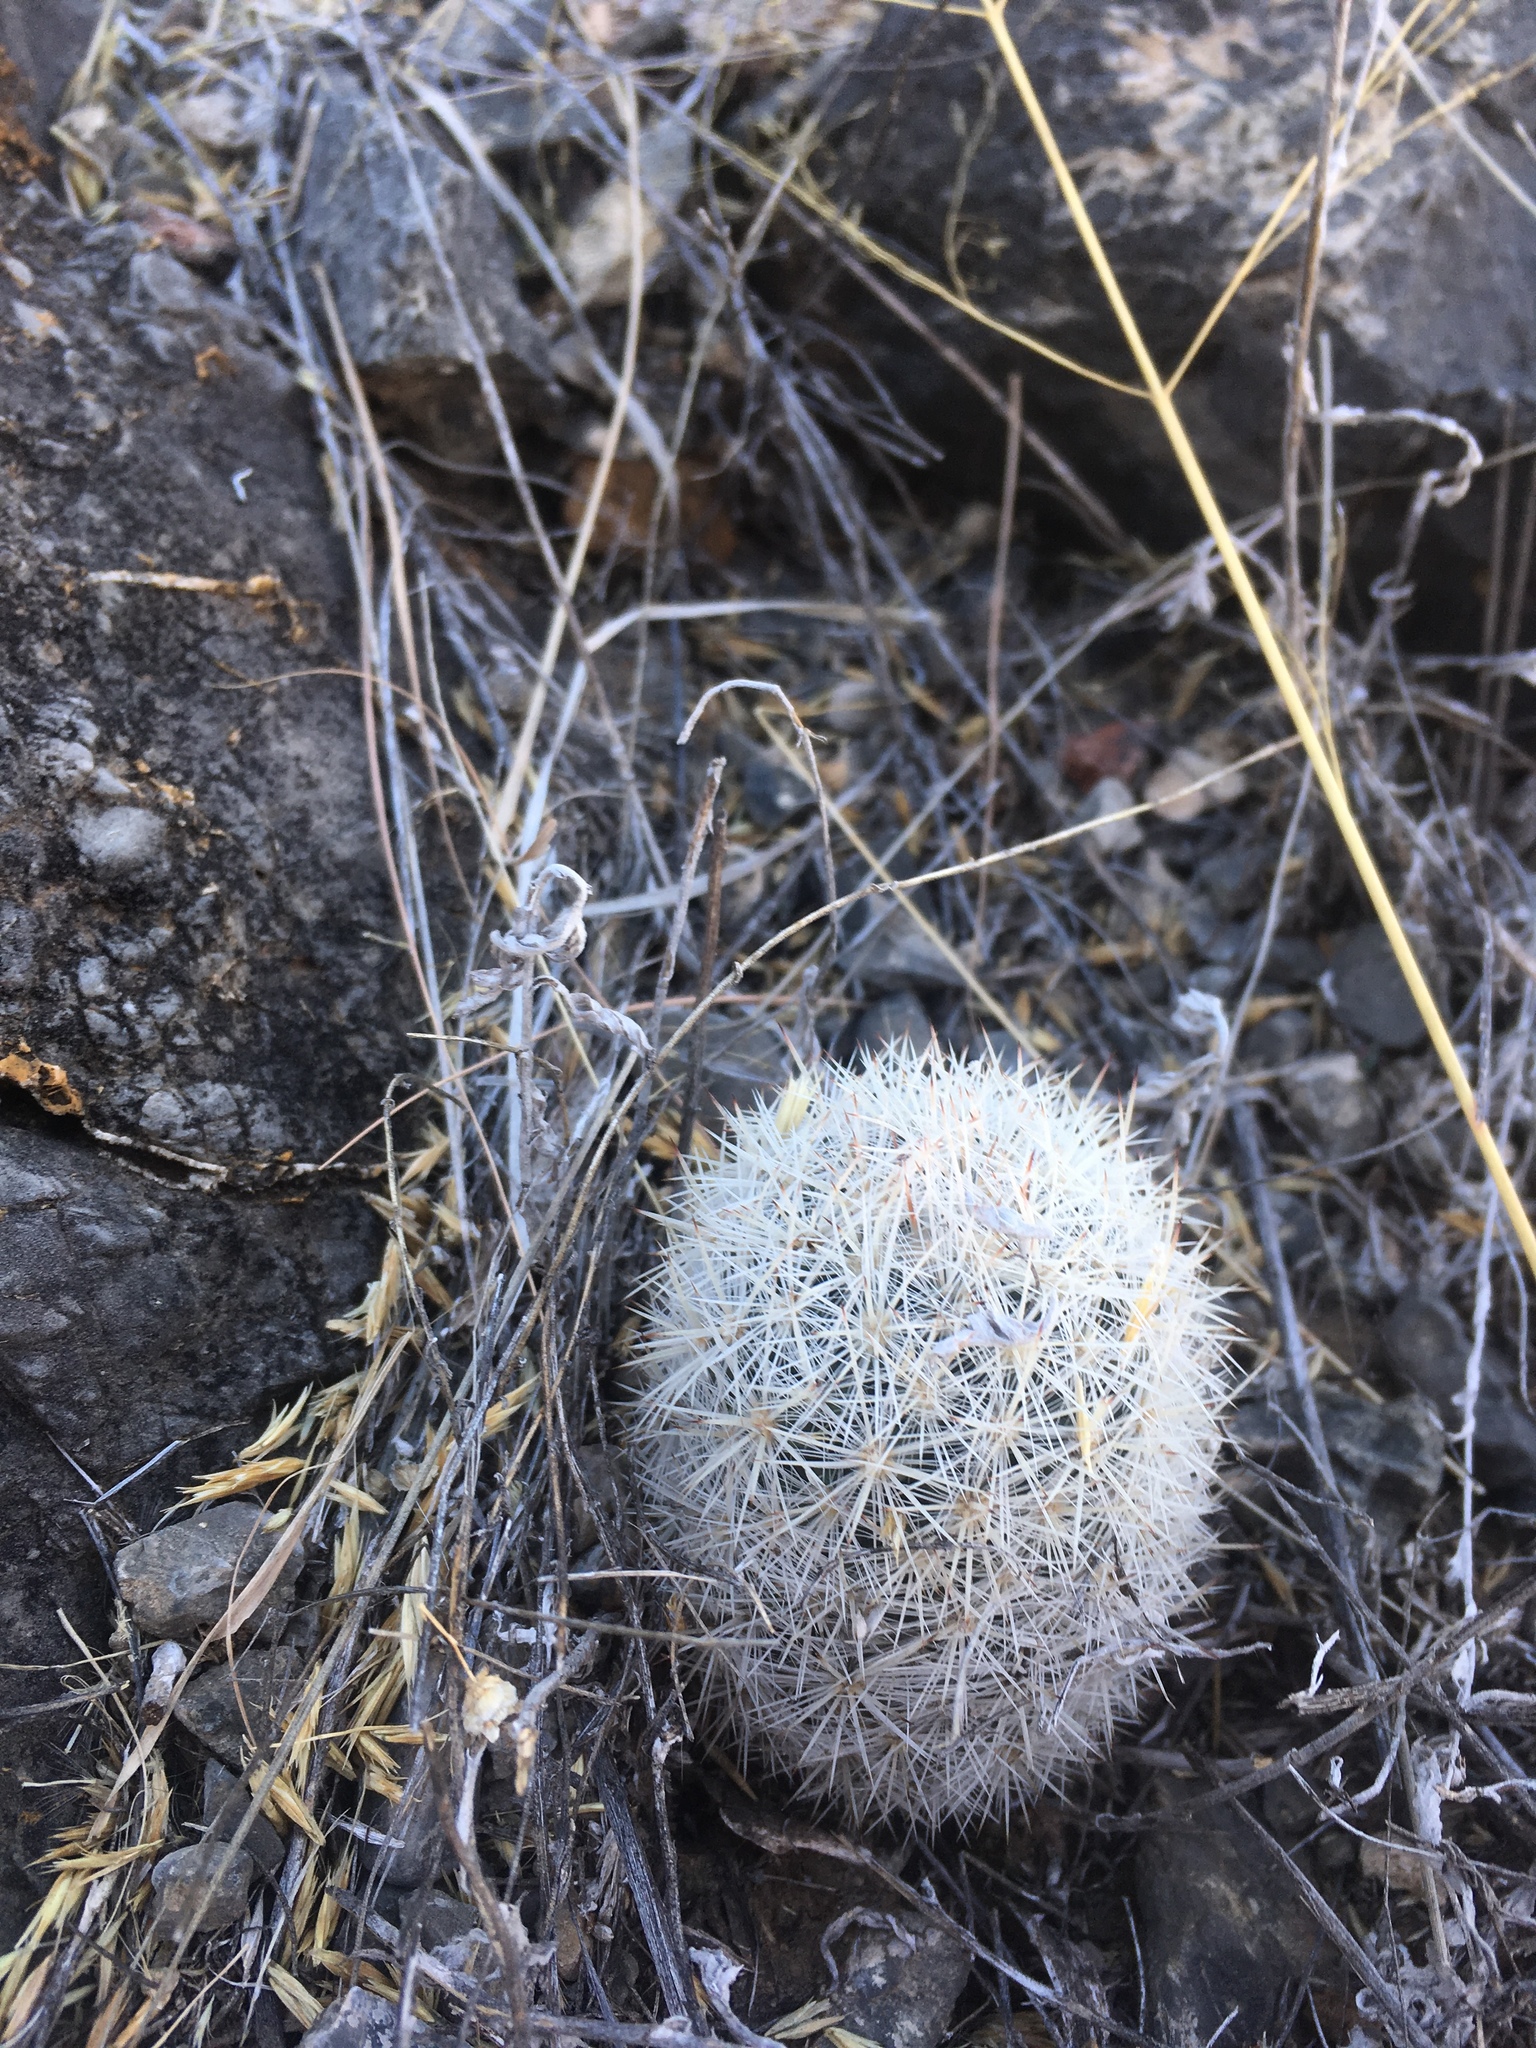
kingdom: Plantae
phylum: Tracheophyta
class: Magnoliopsida
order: Caryophyllales
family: Cactaceae
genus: Pelecyphora
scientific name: Pelecyphora sneedii
